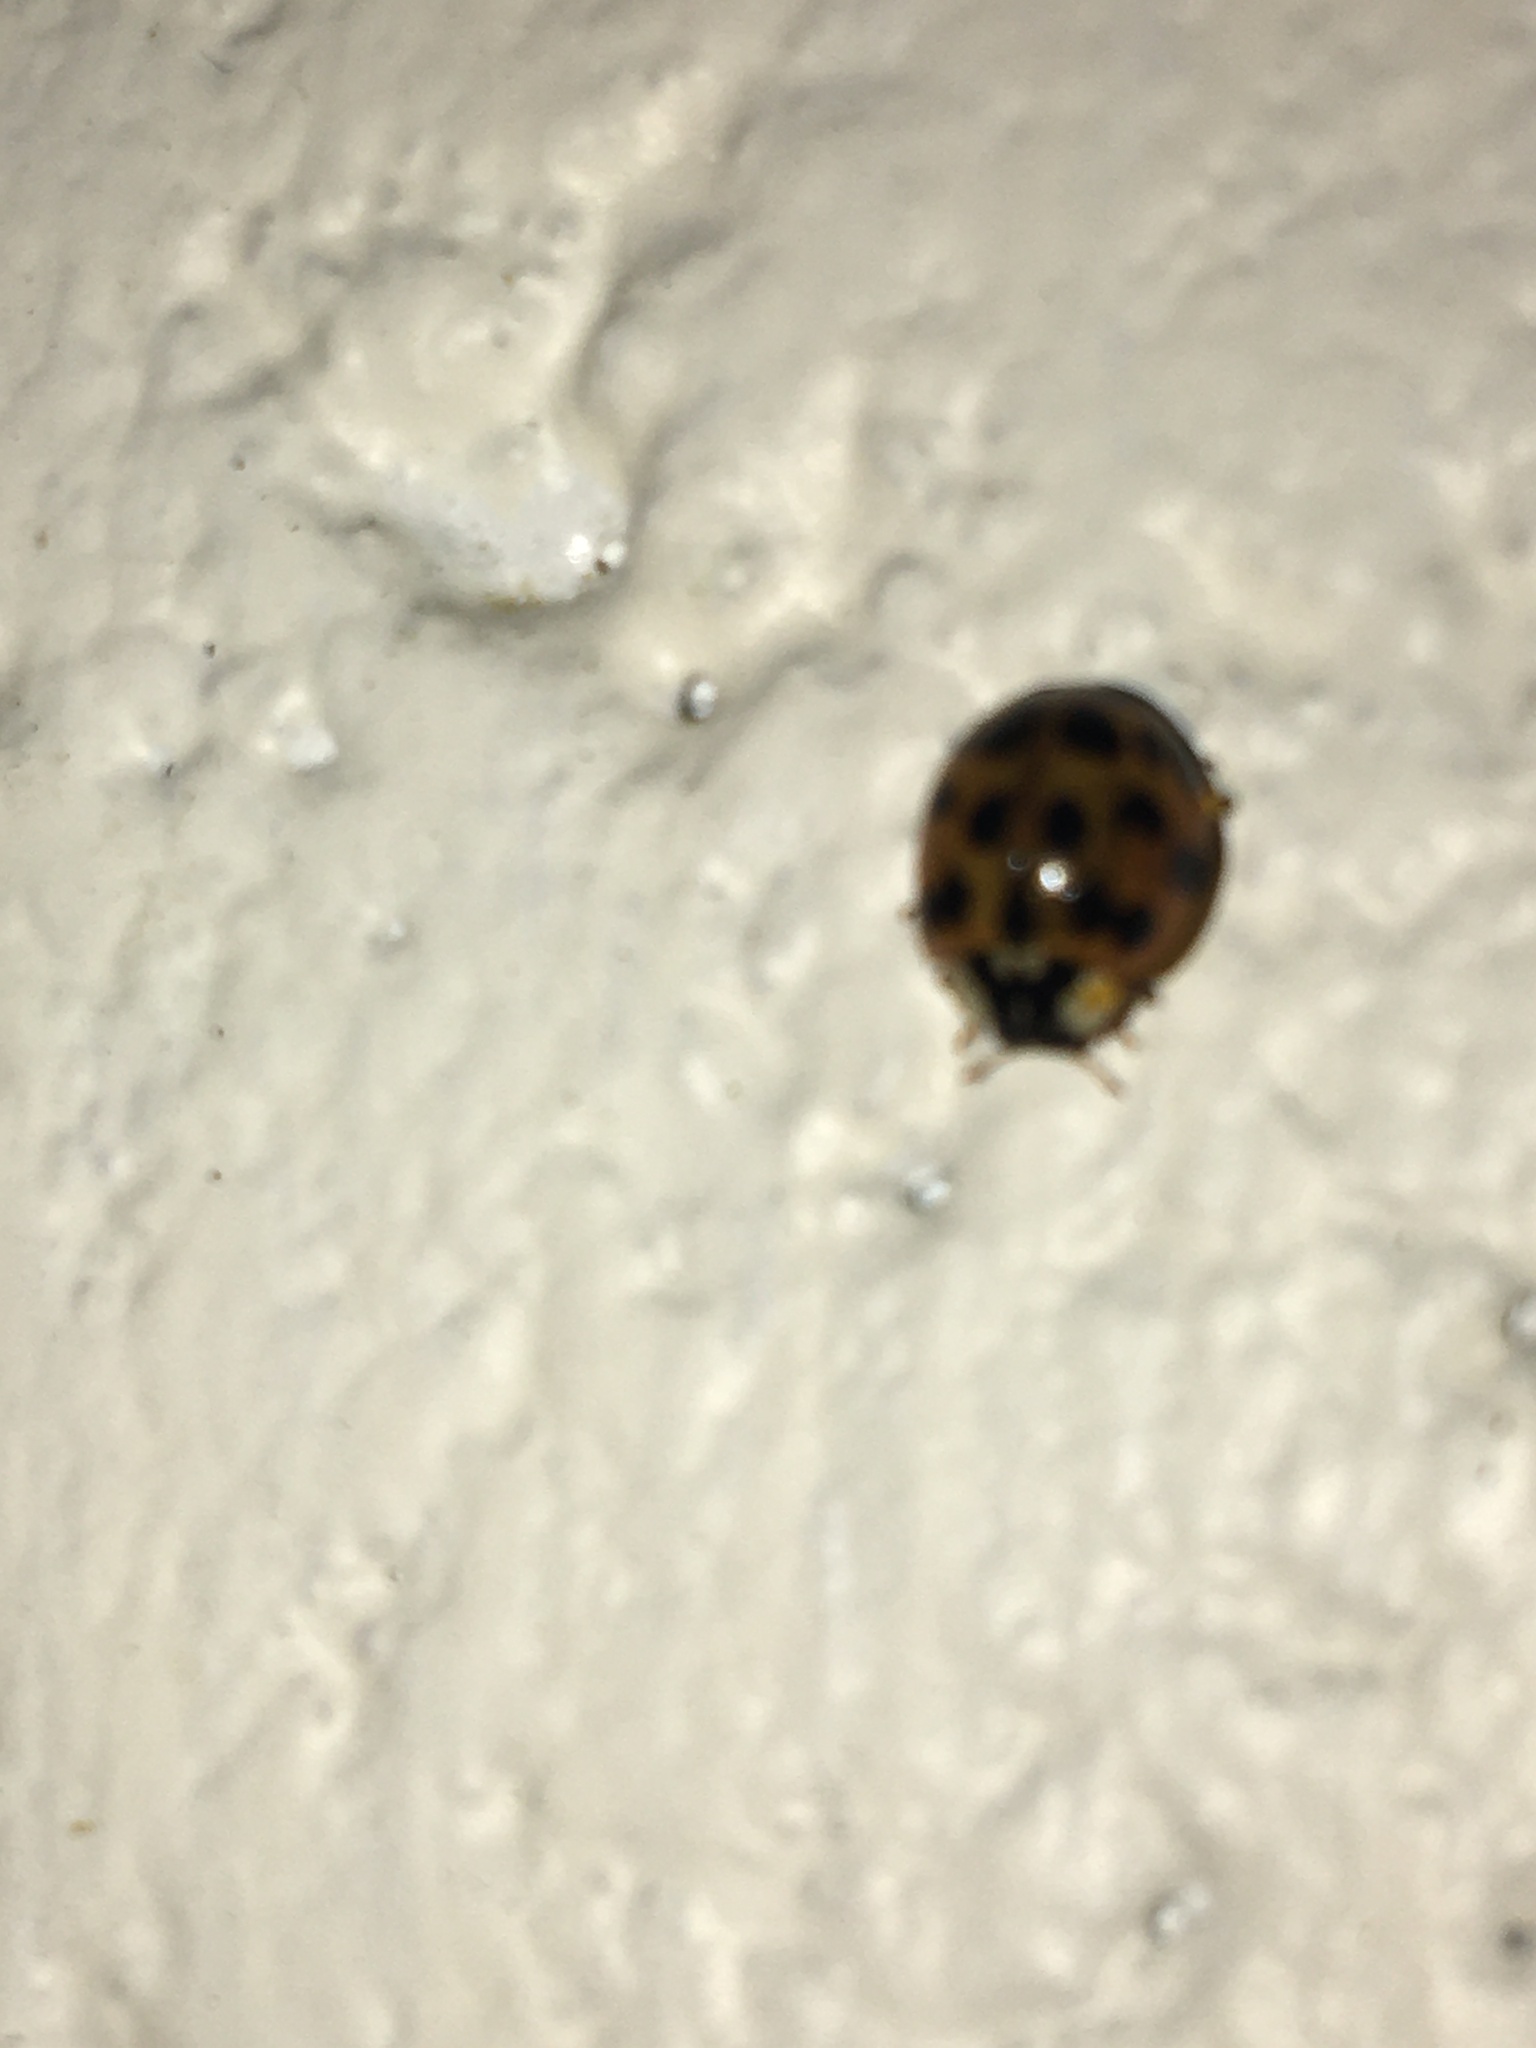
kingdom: Animalia
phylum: Arthropoda
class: Insecta
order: Coleoptera
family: Coccinellidae
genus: Harmonia
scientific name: Harmonia axyridis
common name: Harlequin ladybird
